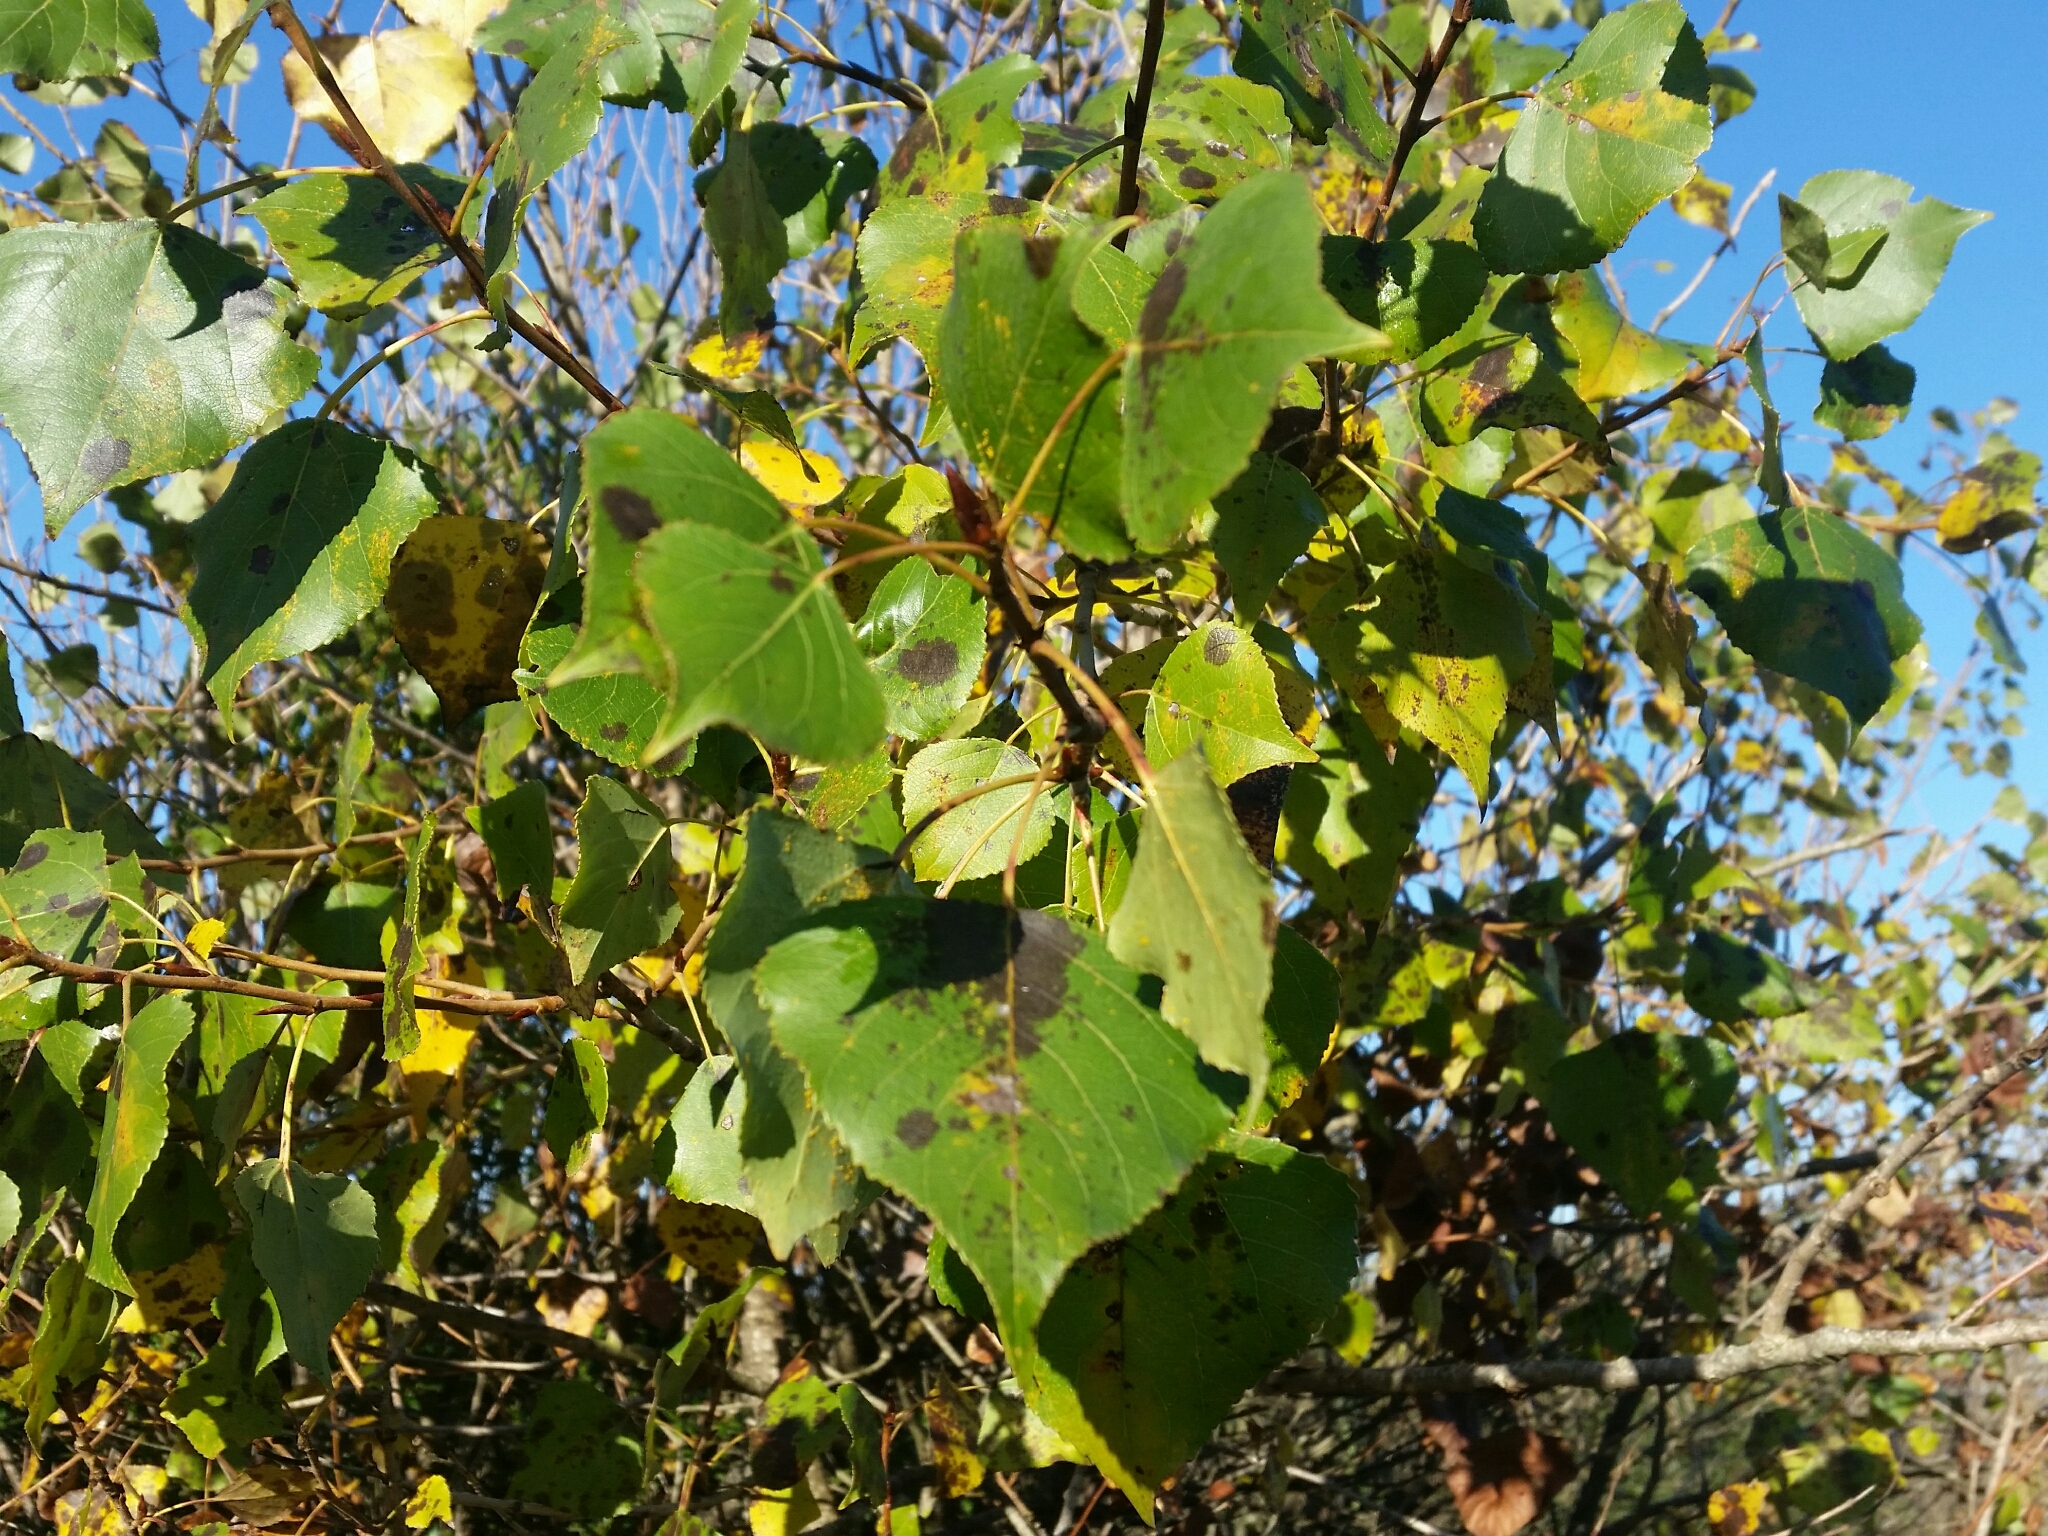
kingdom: Plantae
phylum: Tracheophyta
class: Magnoliopsida
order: Malpighiales
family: Salicaceae
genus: Populus
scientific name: Populus nigra
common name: Black poplar
